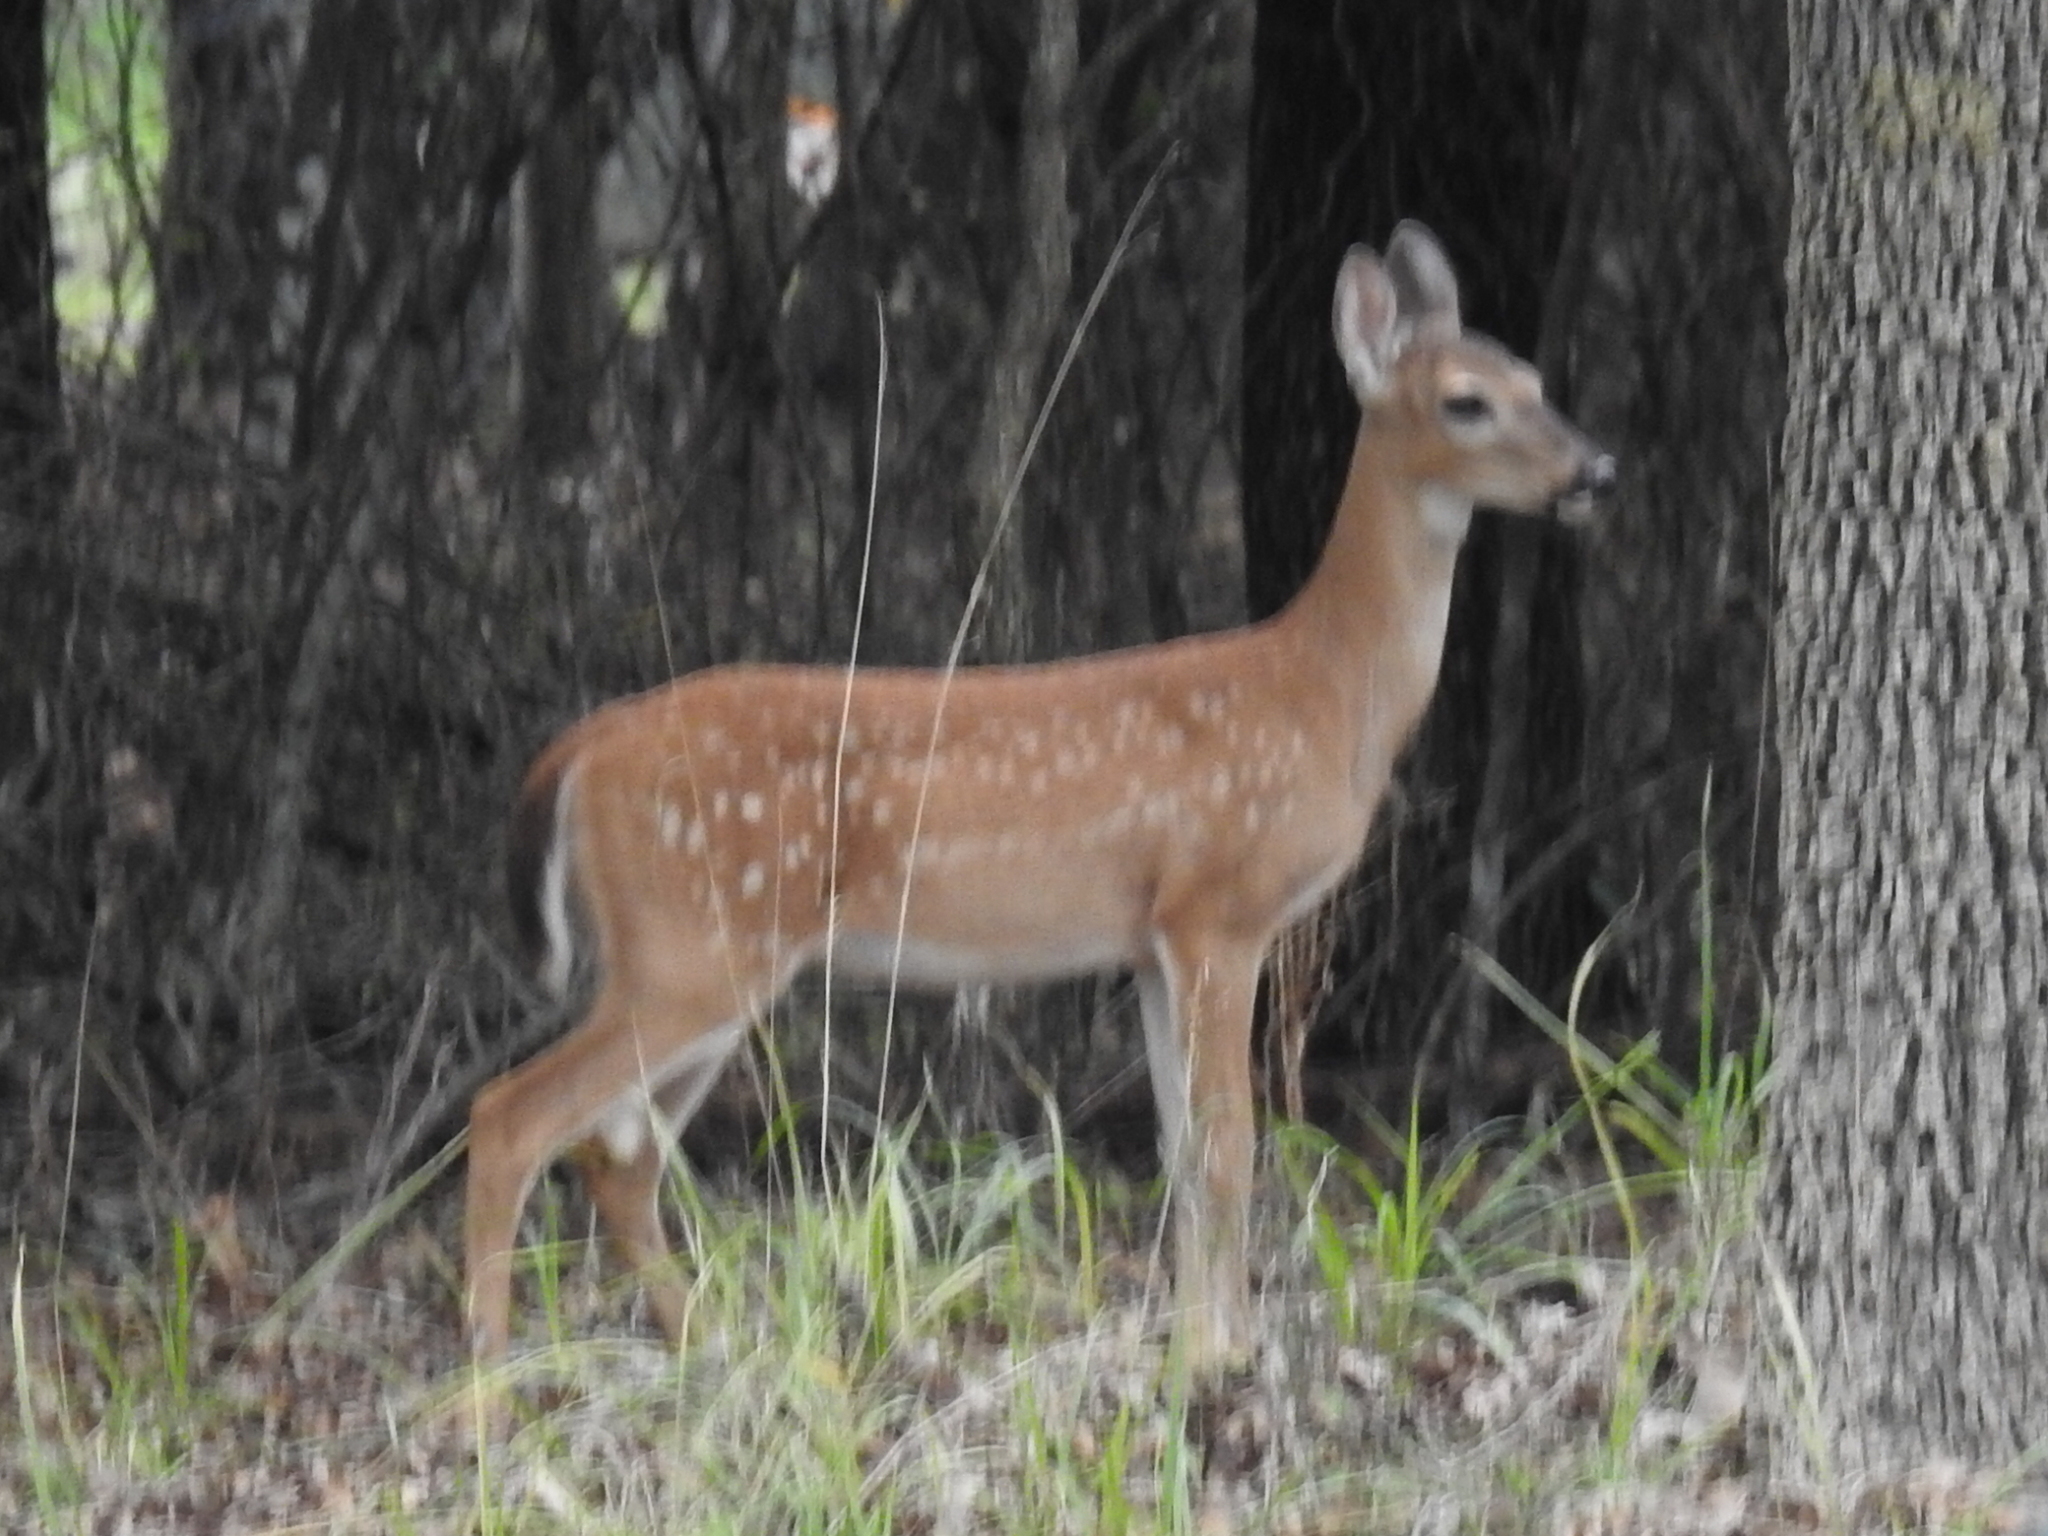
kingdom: Animalia
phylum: Chordata
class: Mammalia
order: Artiodactyla
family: Cervidae
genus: Odocoileus
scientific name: Odocoileus virginianus
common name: White-tailed deer
